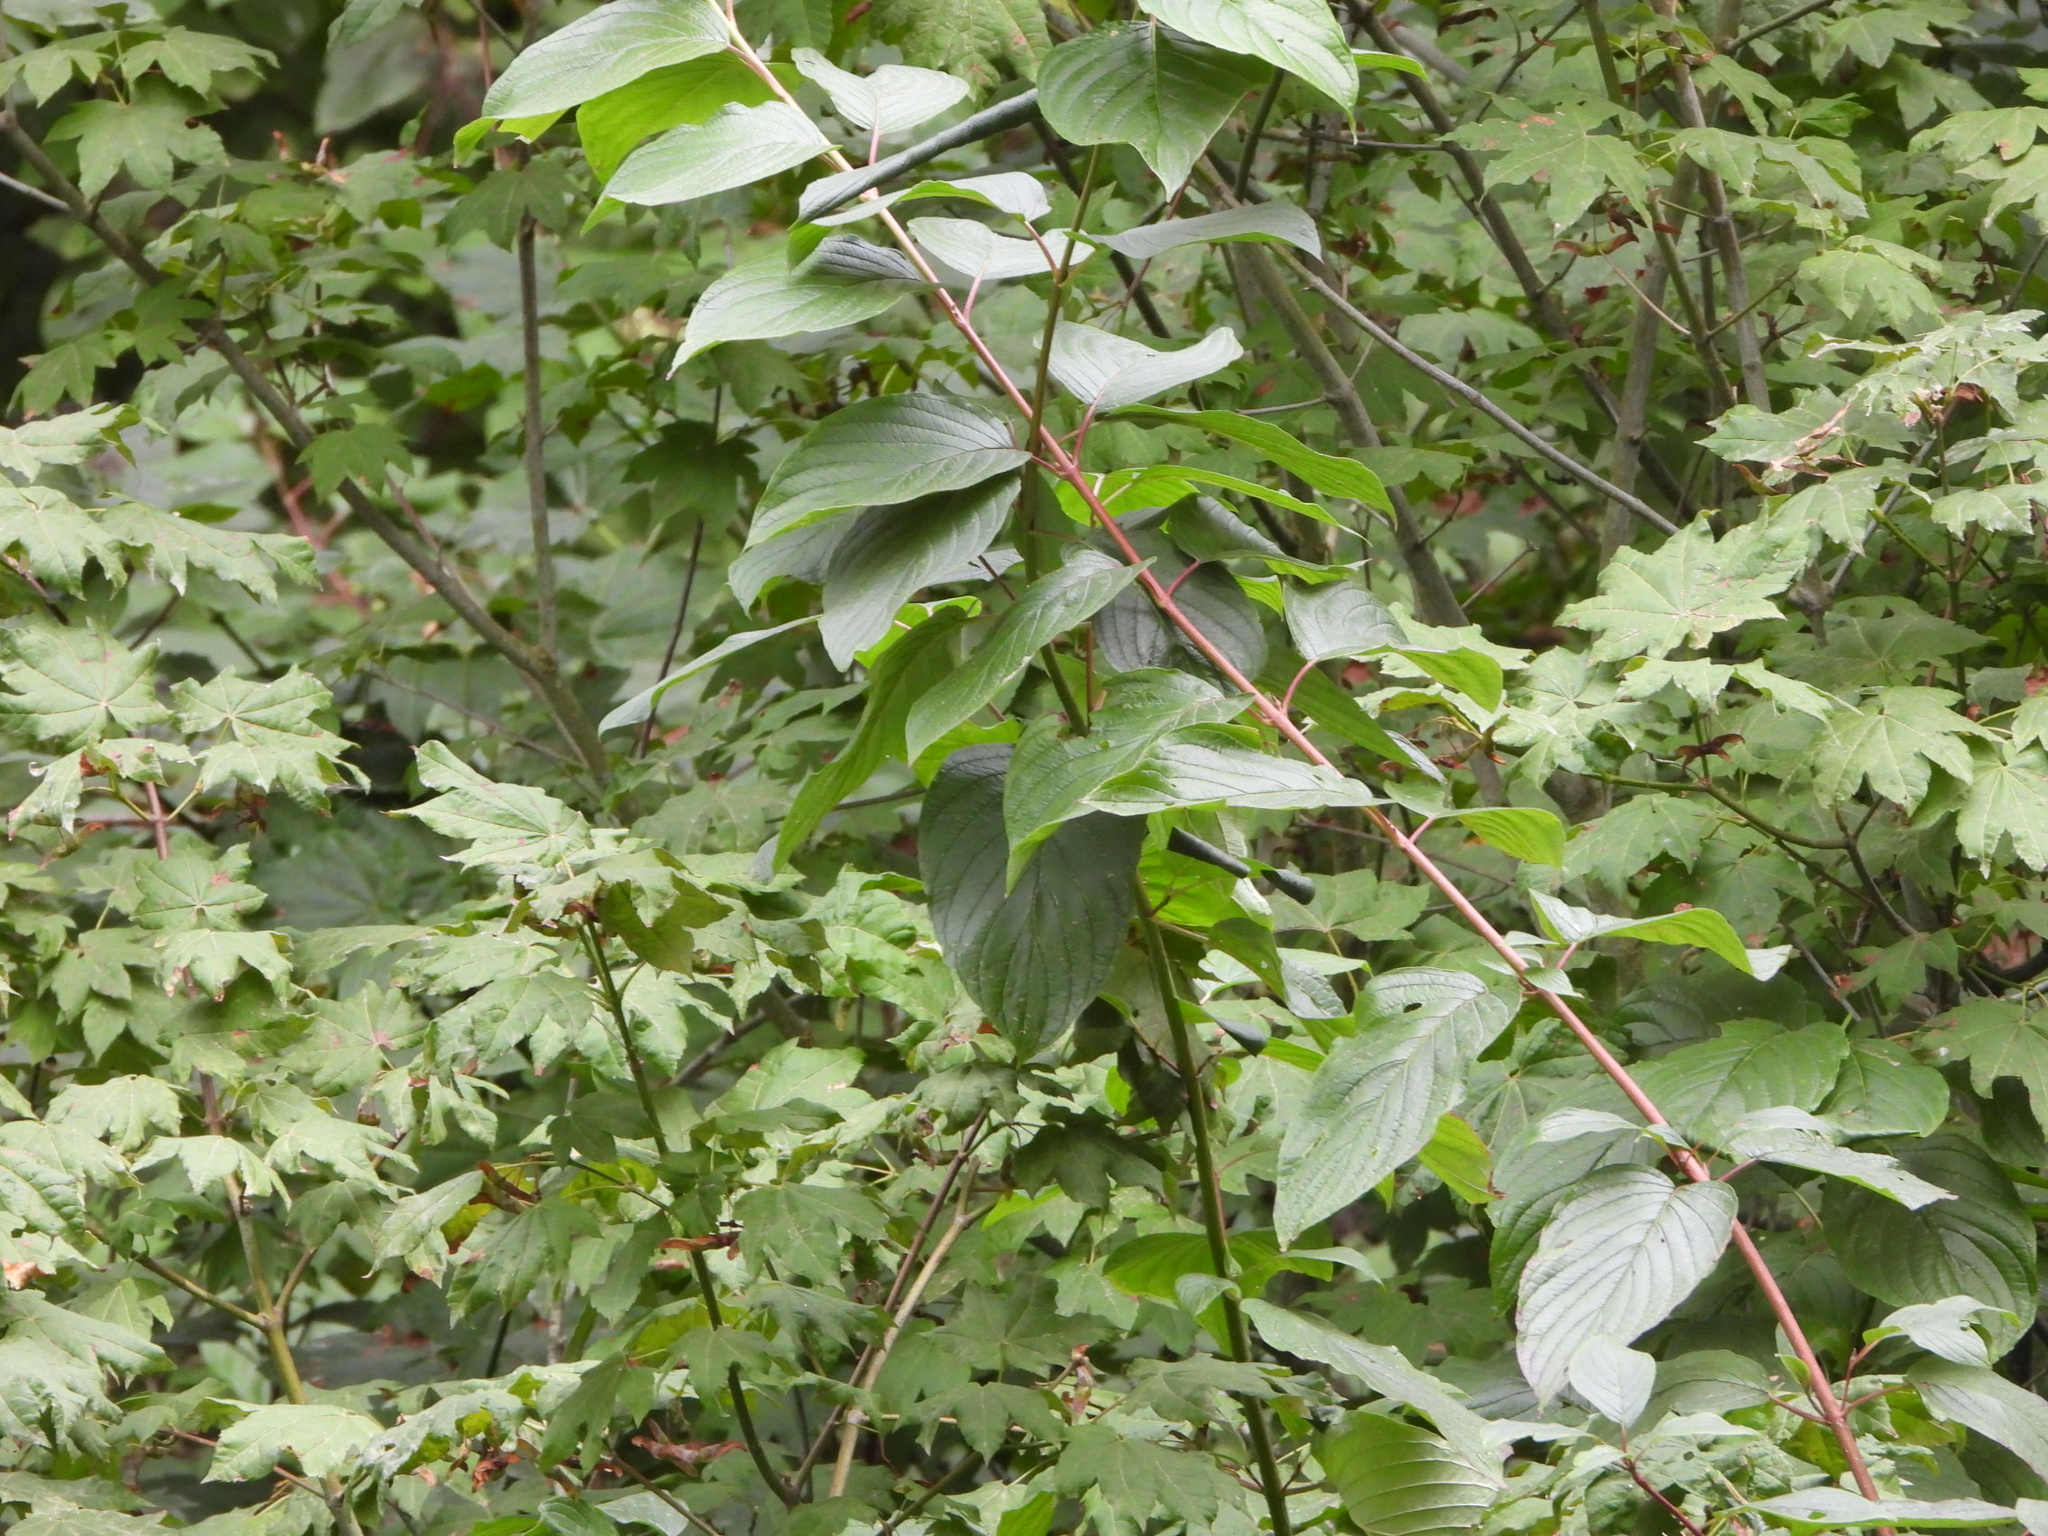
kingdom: Plantae
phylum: Tracheophyta
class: Magnoliopsida
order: Cornales
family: Cornaceae
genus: Cornus
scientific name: Cornus sericea
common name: Red-osier dogwood
